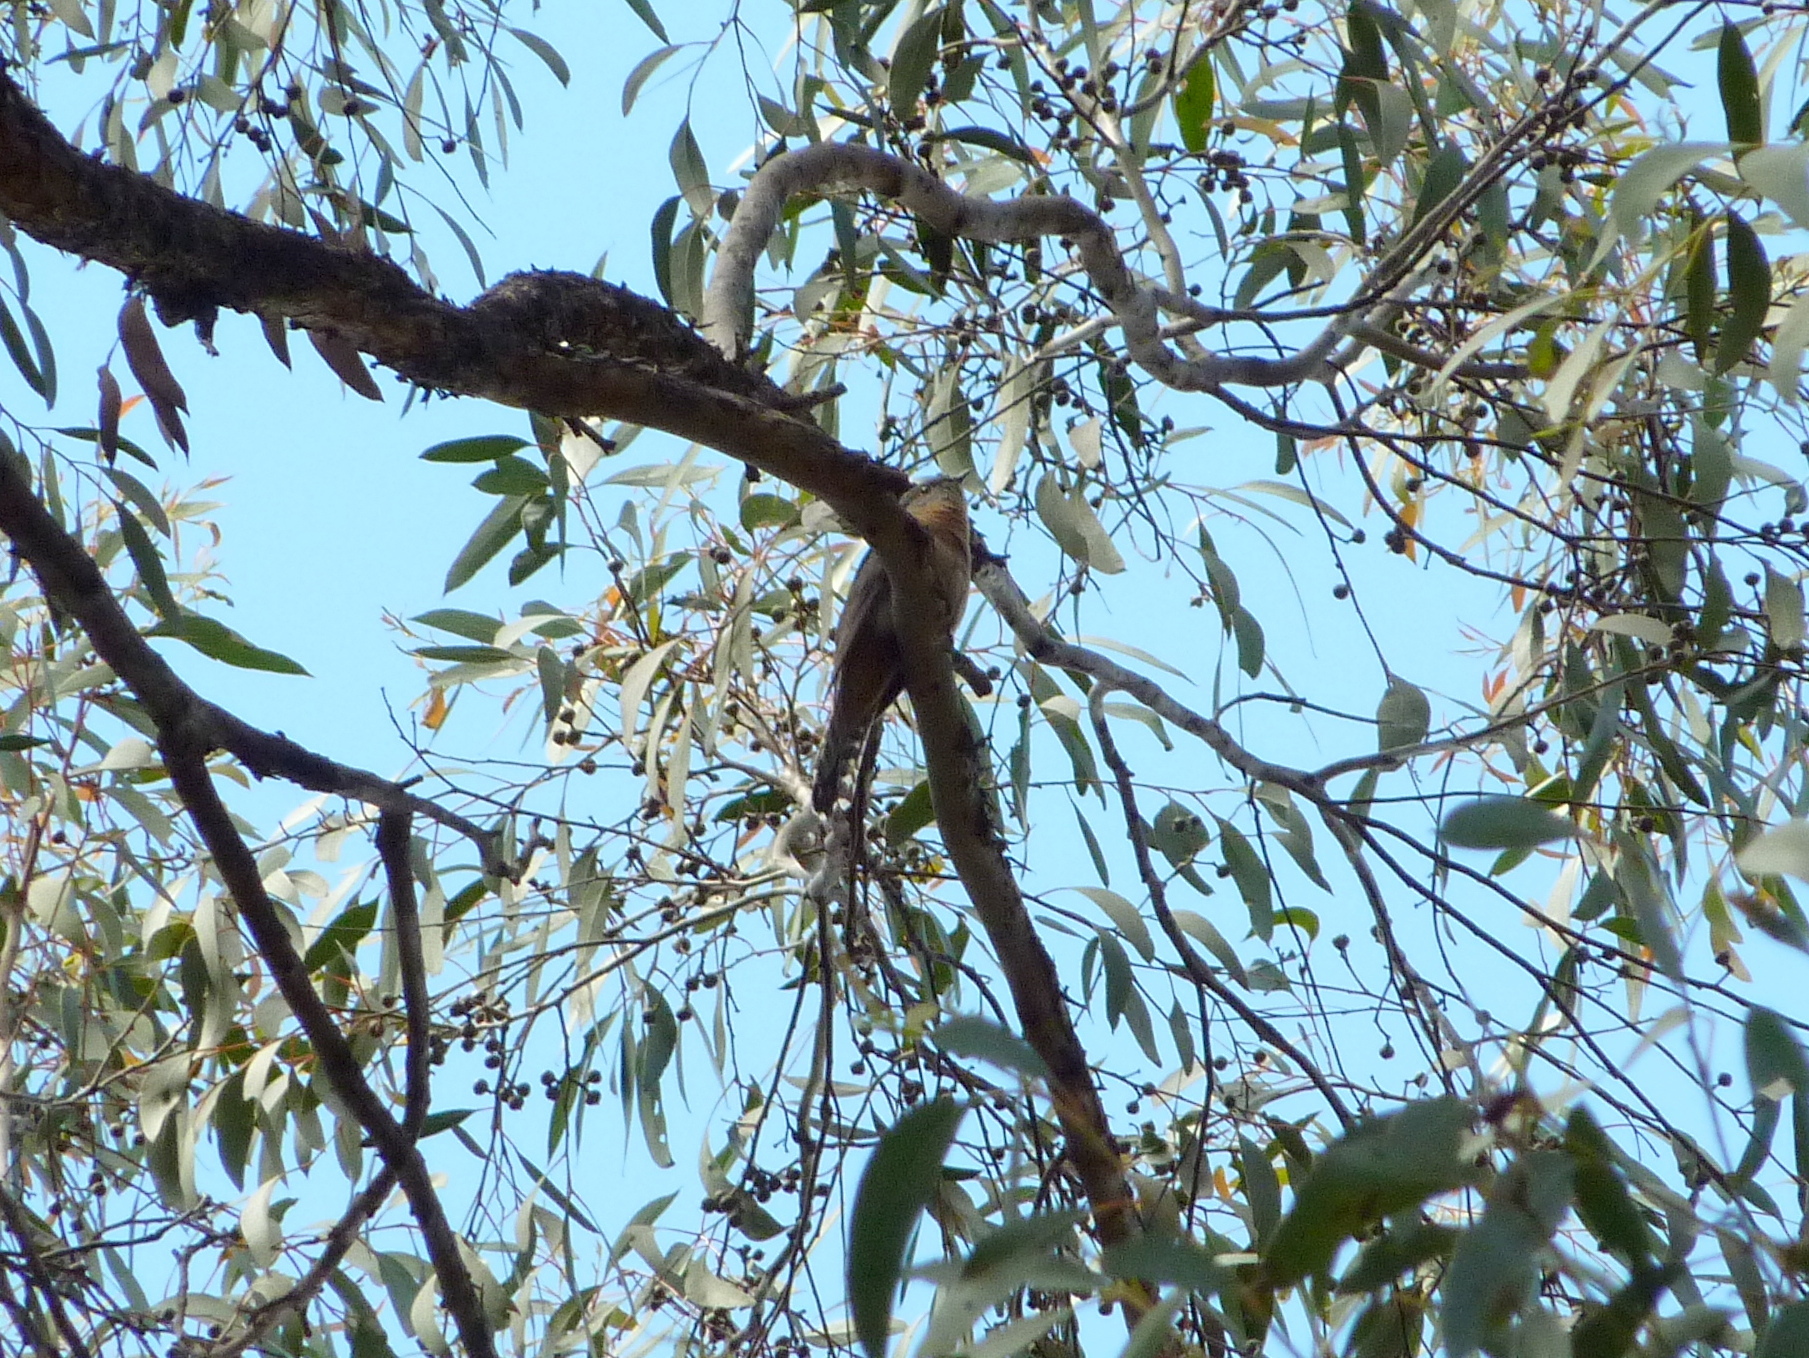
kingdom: Animalia
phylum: Chordata
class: Aves
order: Cuculiformes
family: Cuculidae
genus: Cacomantis
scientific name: Cacomantis flabelliformis
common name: Fan-tailed cuckoo
